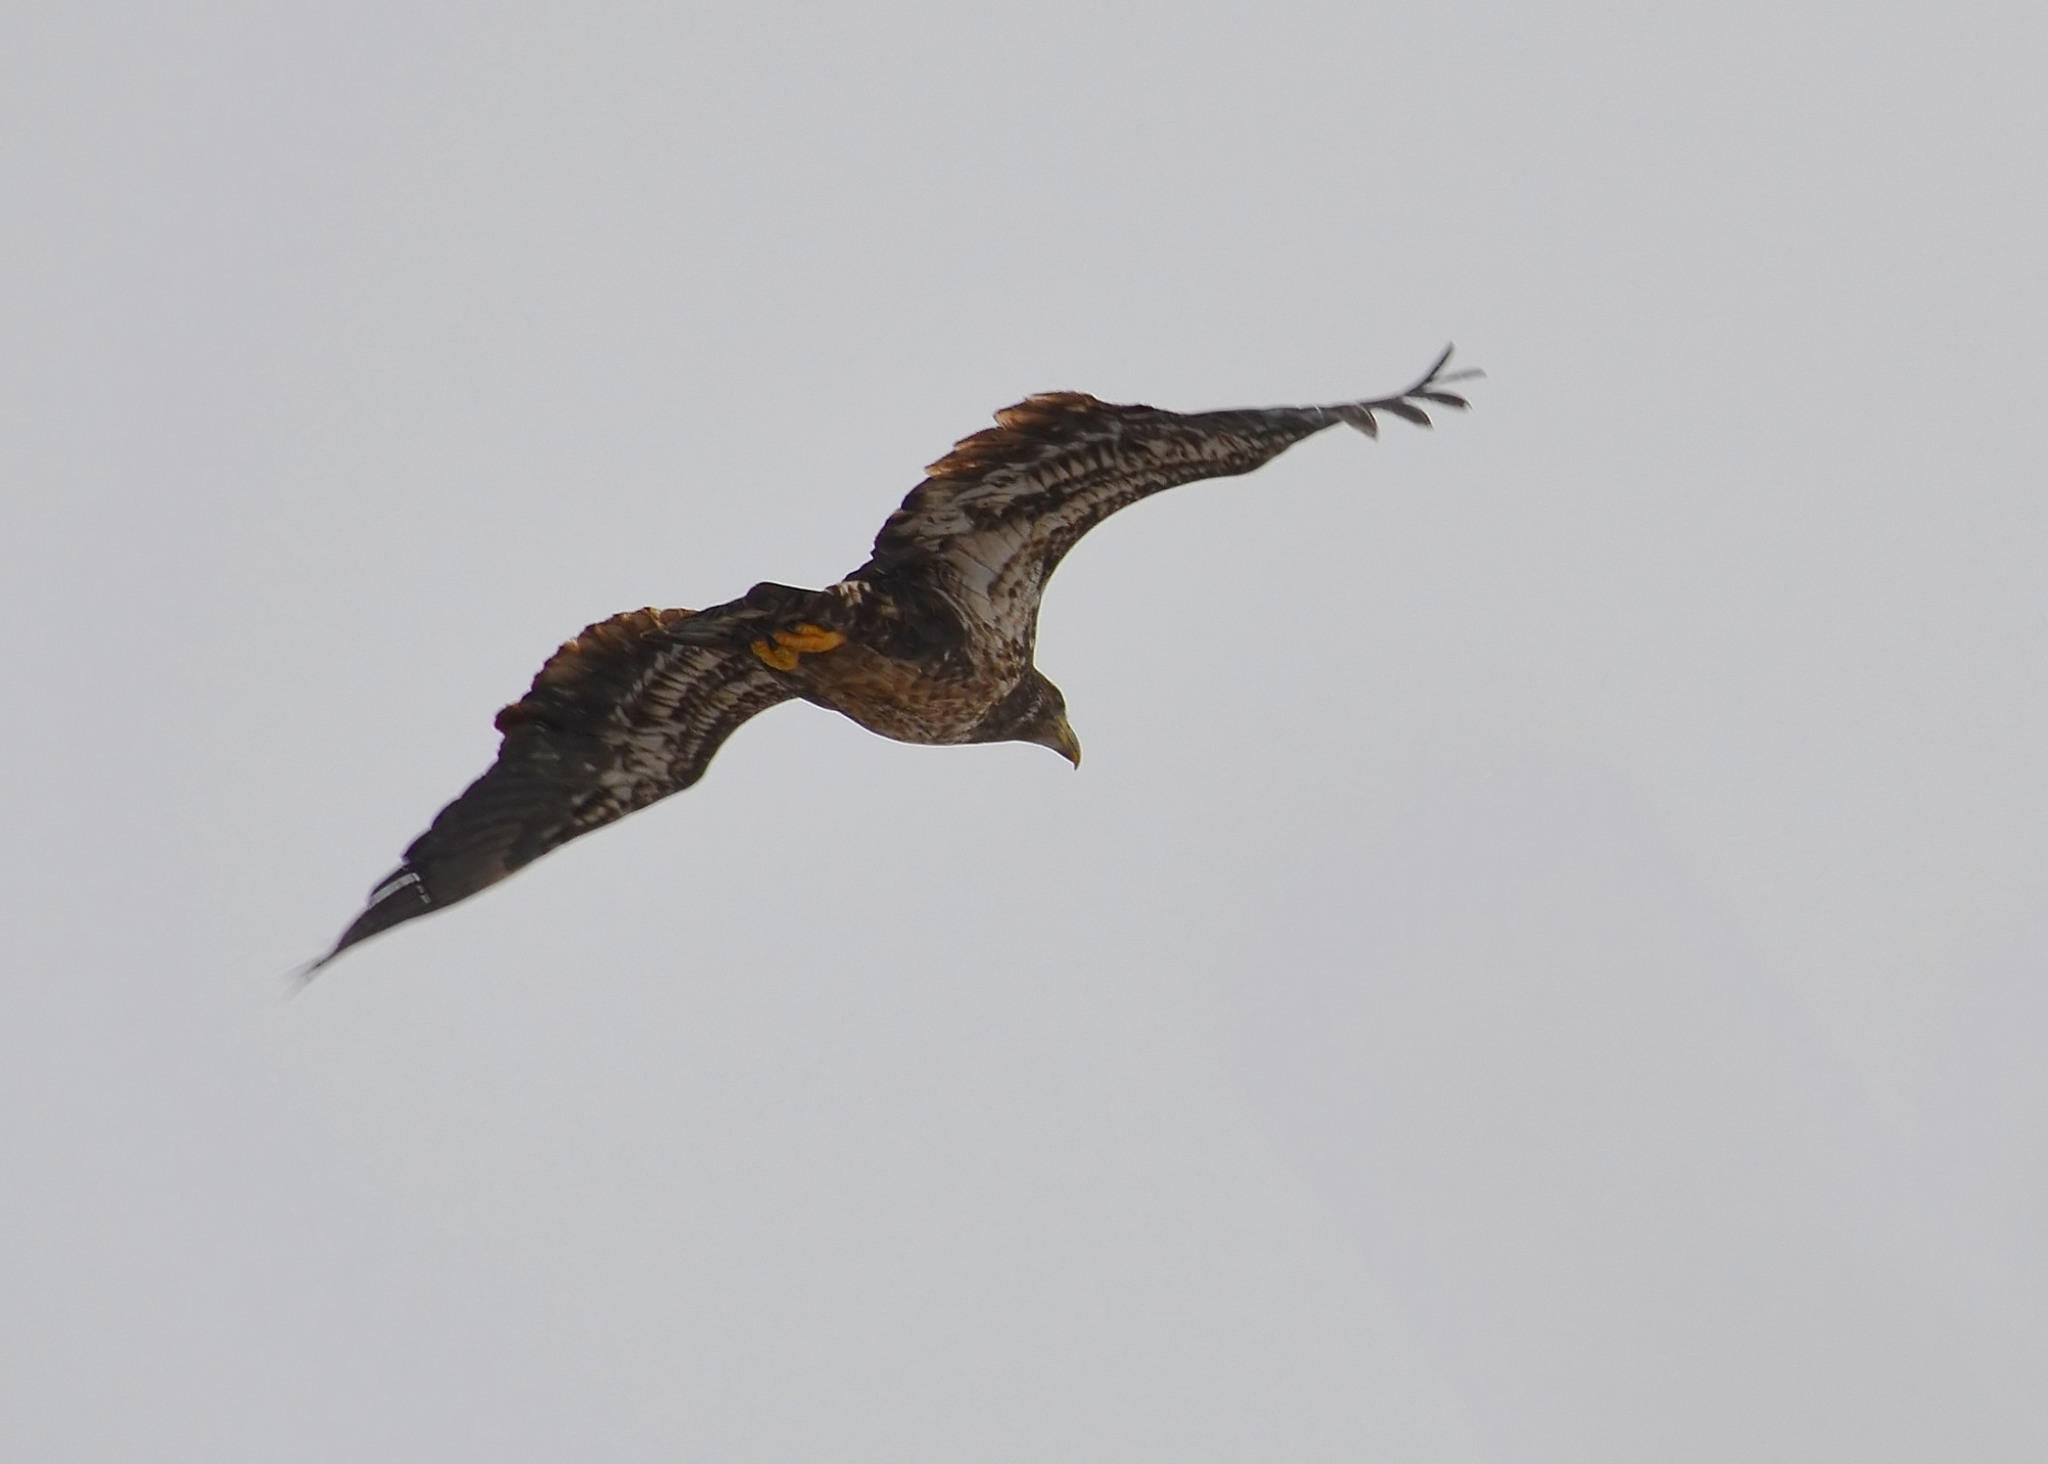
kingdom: Animalia
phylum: Chordata
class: Aves
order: Accipitriformes
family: Accipitridae
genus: Haliaeetus
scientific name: Haliaeetus leucocephalus
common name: Bald eagle
